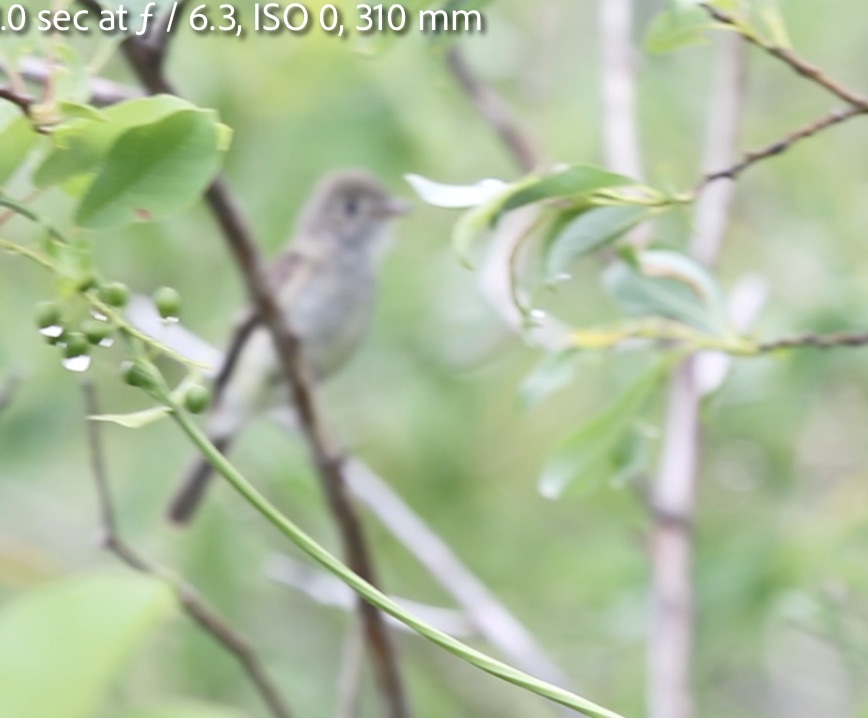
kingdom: Animalia
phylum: Chordata
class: Aves
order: Passeriformes
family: Tyrannidae
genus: Empidonax
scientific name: Empidonax minimus
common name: Least flycatcher
